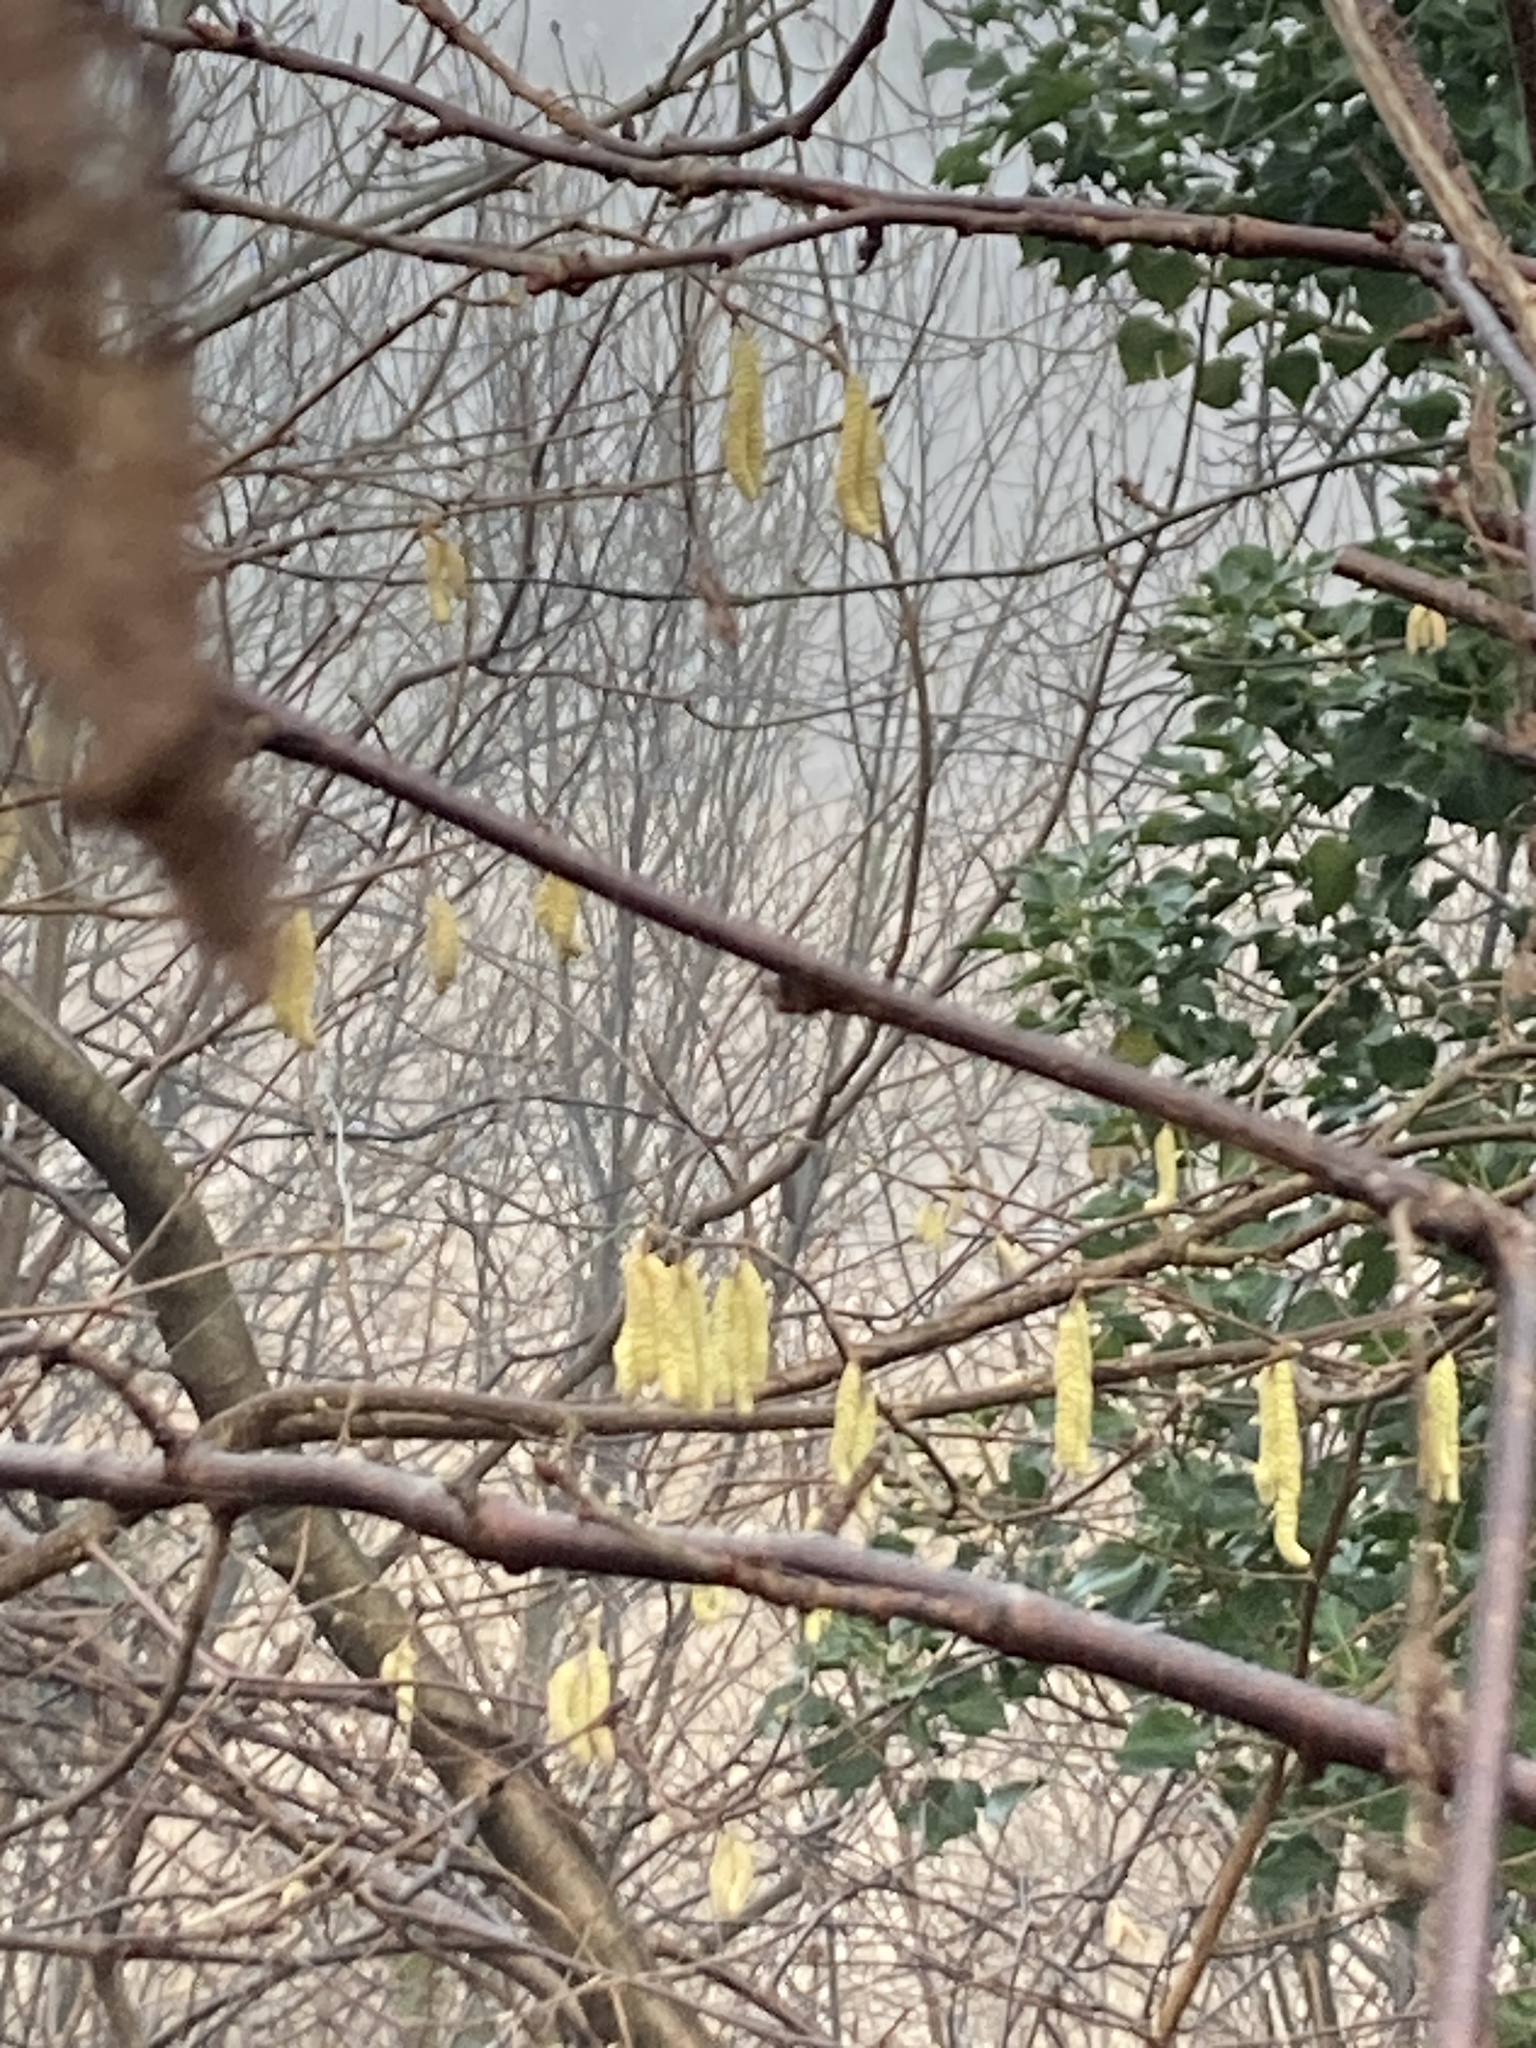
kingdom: Plantae
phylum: Tracheophyta
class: Magnoliopsida
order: Fagales
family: Betulaceae
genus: Corylus
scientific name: Corylus avellana
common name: European hazel
